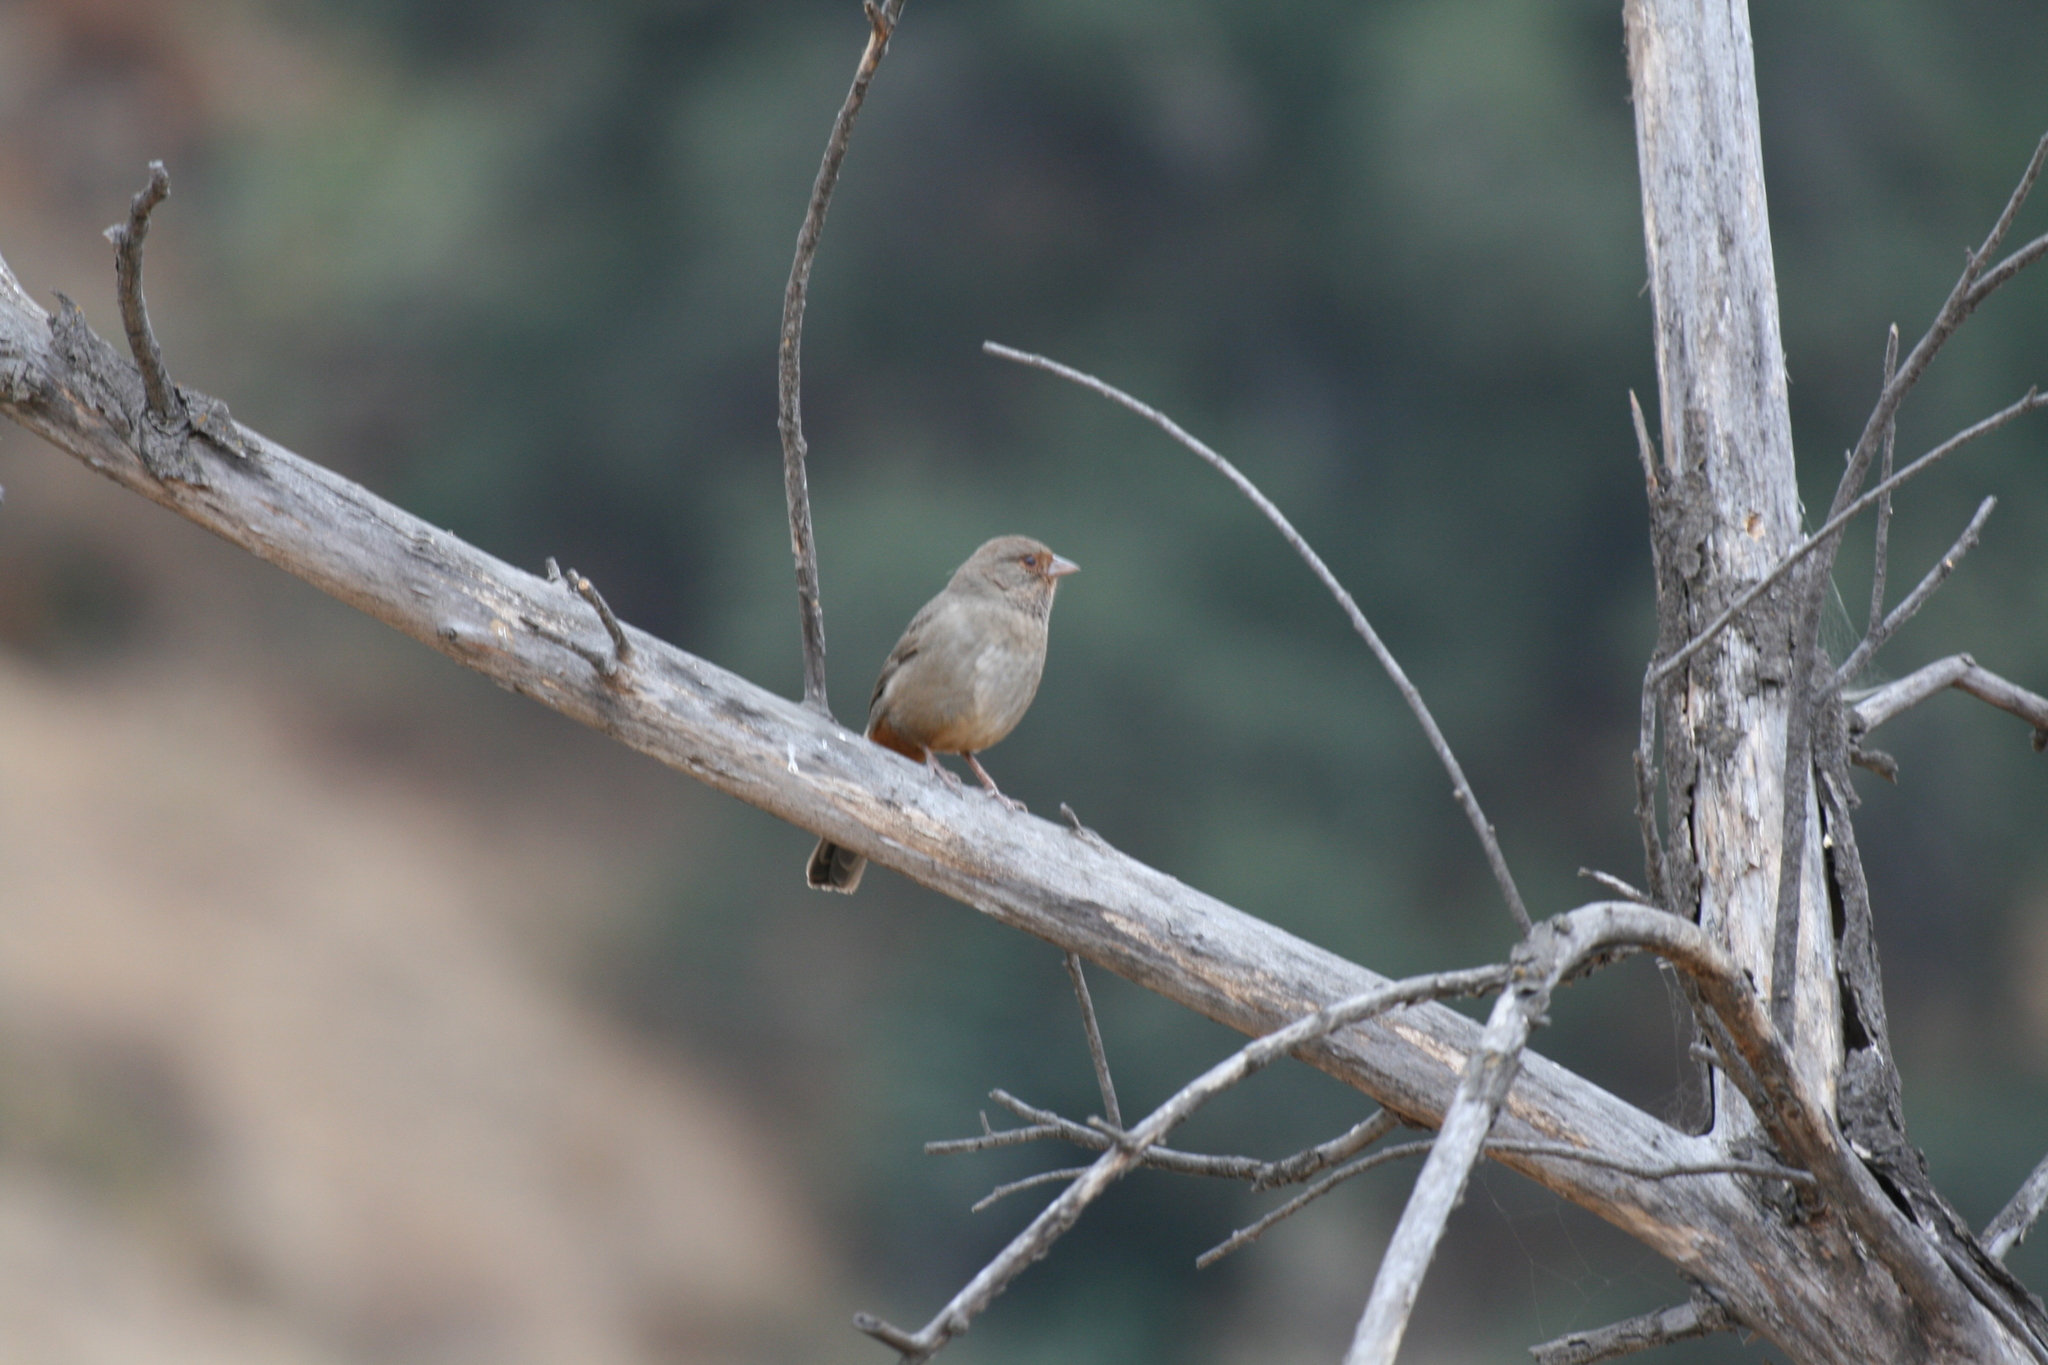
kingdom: Animalia
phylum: Chordata
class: Aves
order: Passeriformes
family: Passerellidae
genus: Melozone
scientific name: Melozone crissalis
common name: California towhee
